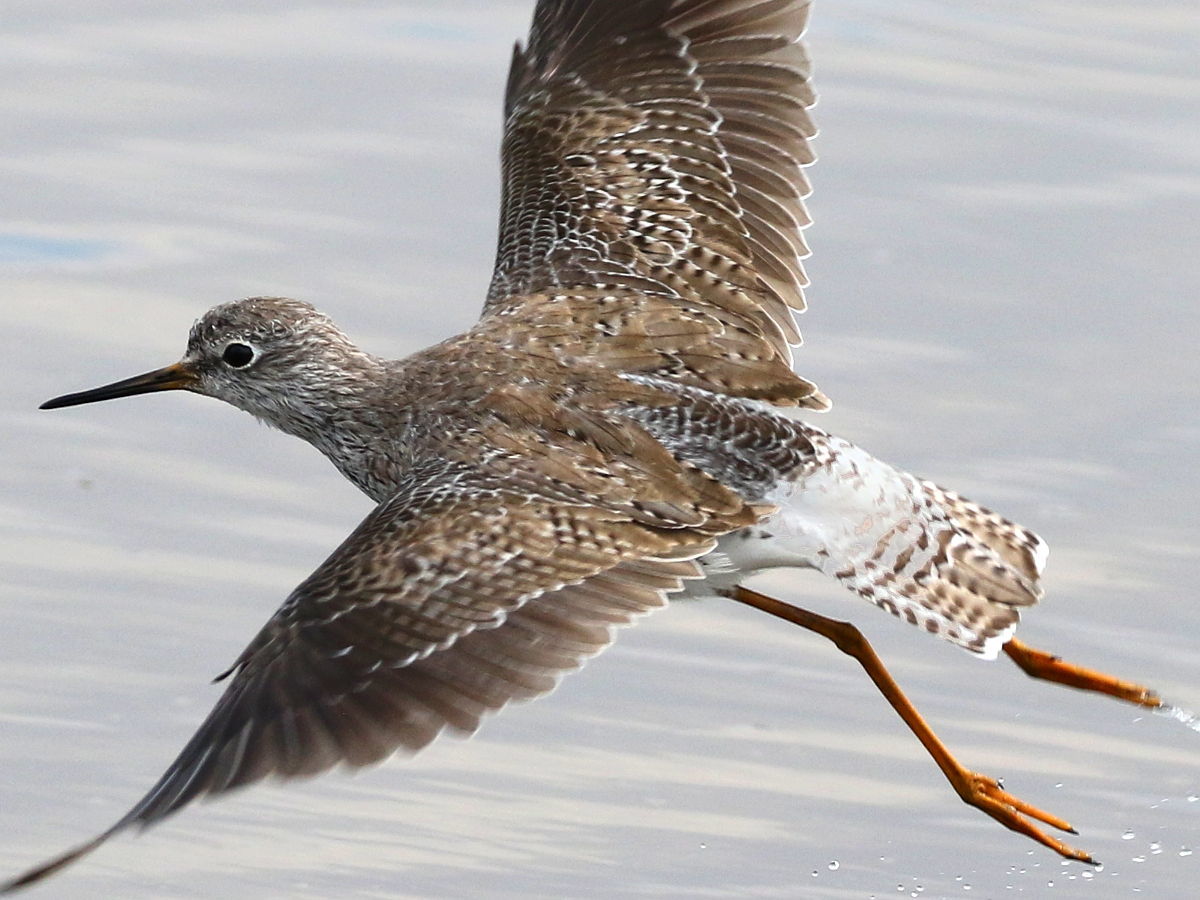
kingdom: Animalia
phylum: Chordata
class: Aves
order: Charadriiformes
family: Scolopacidae
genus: Tringa
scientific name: Tringa flavipes
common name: Lesser yellowlegs
